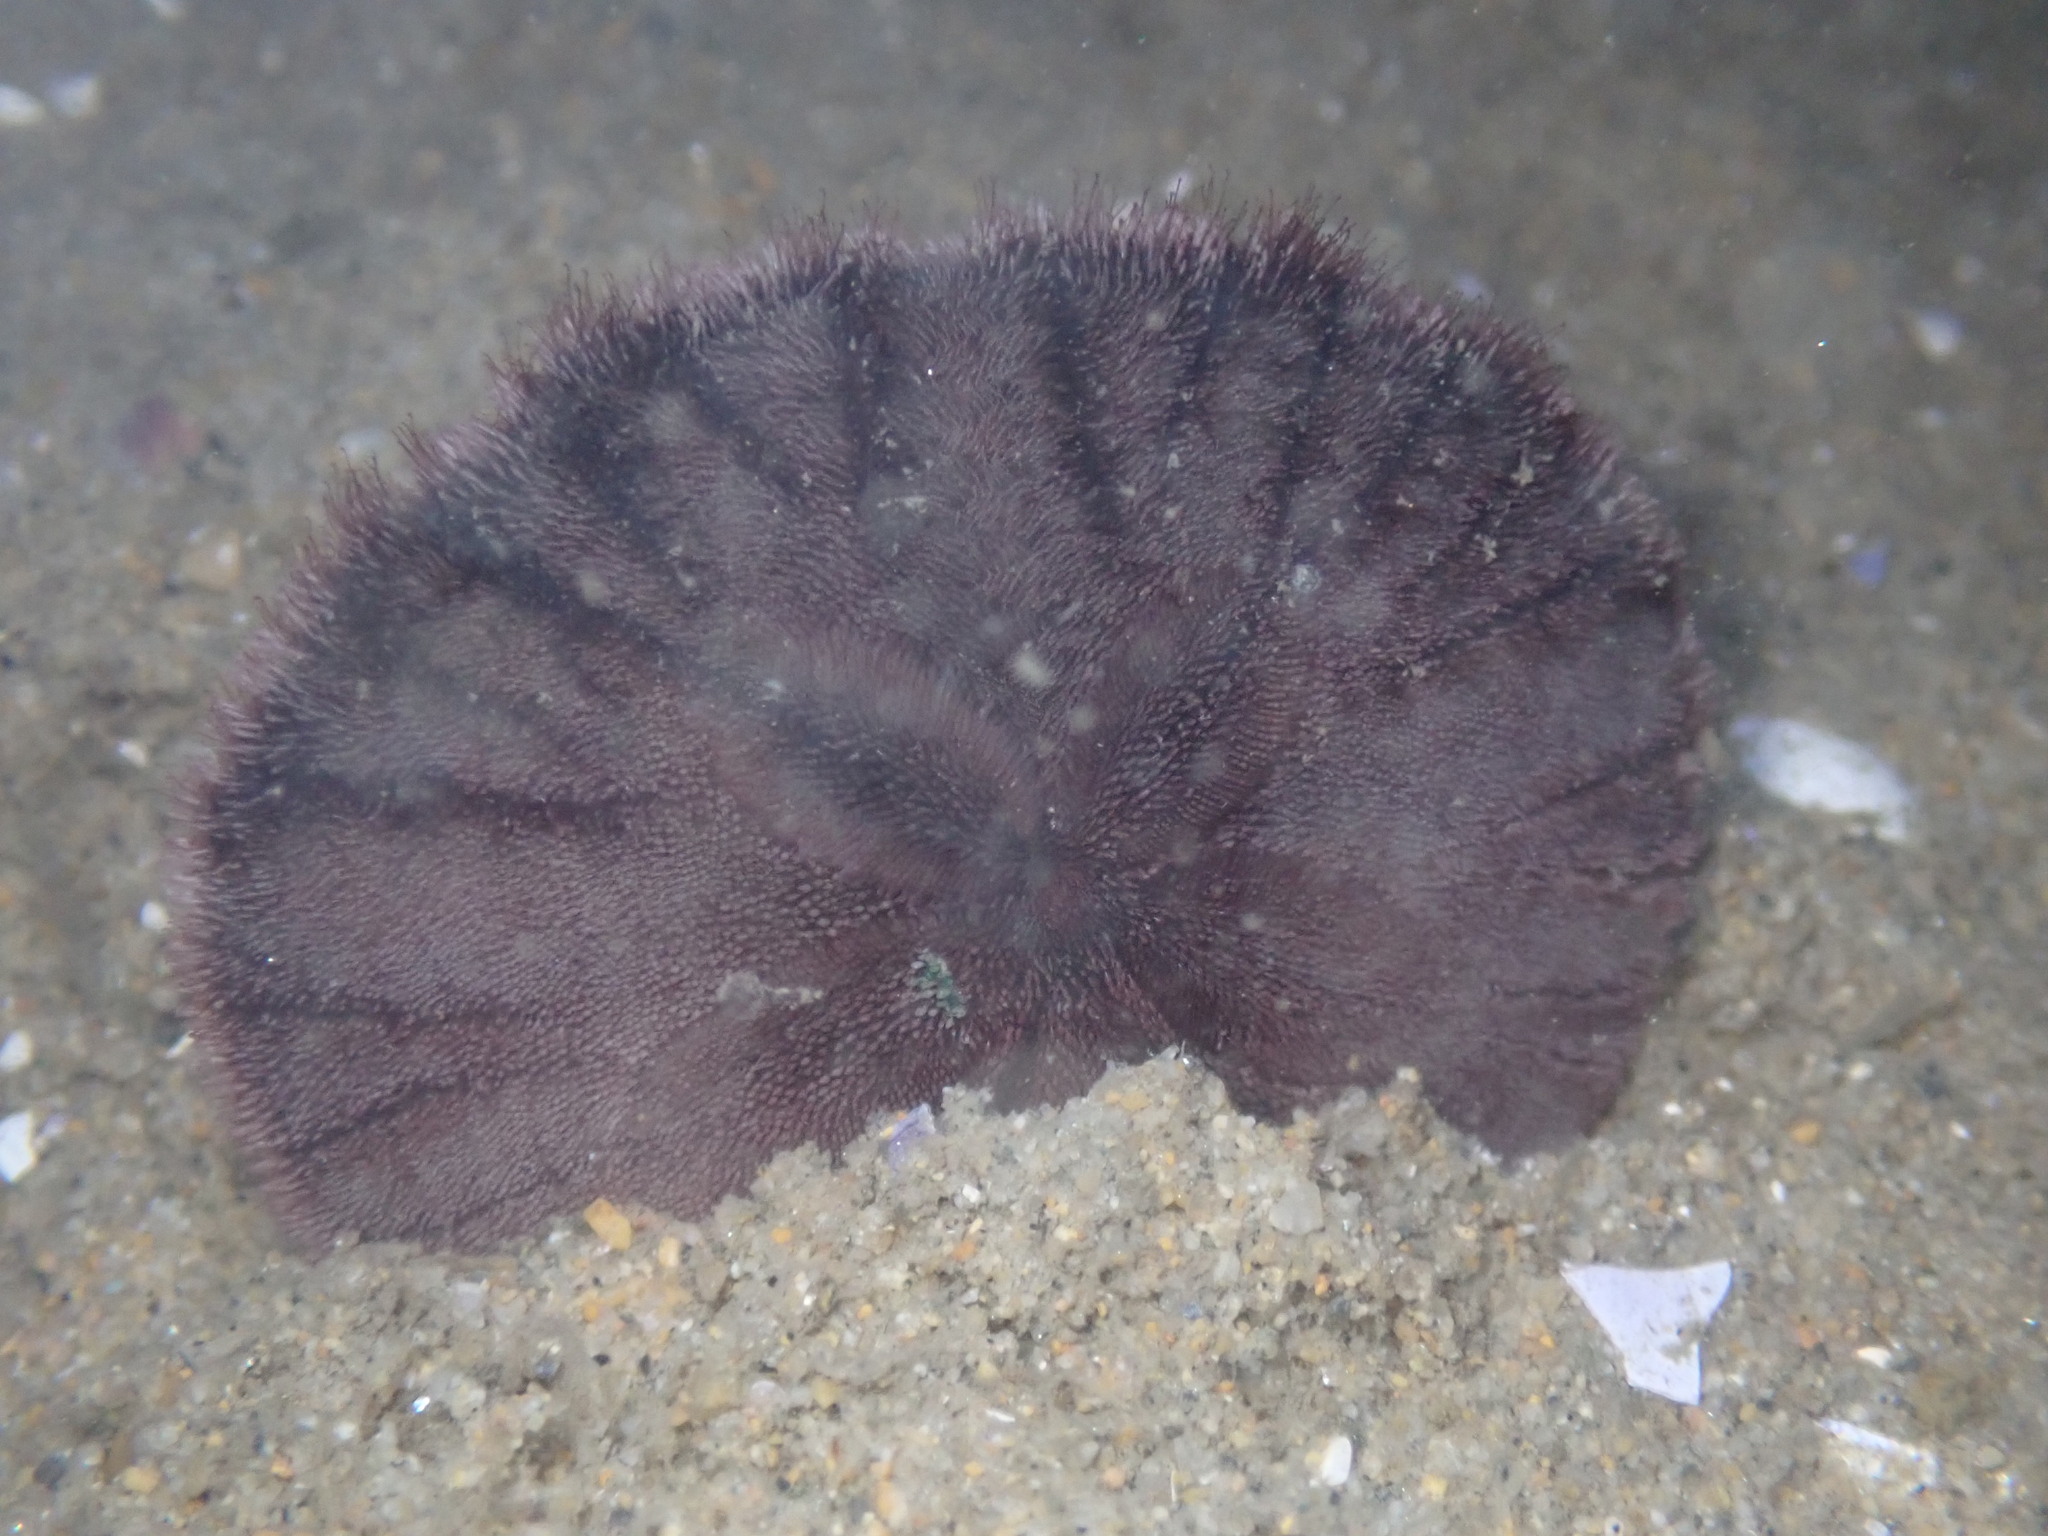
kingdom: Animalia
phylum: Echinodermata
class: Echinoidea
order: Echinolampadacea
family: Dendrasteridae
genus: Dendraster
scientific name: Dendraster excentricus
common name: Eccentric sand dollar sea urchin
